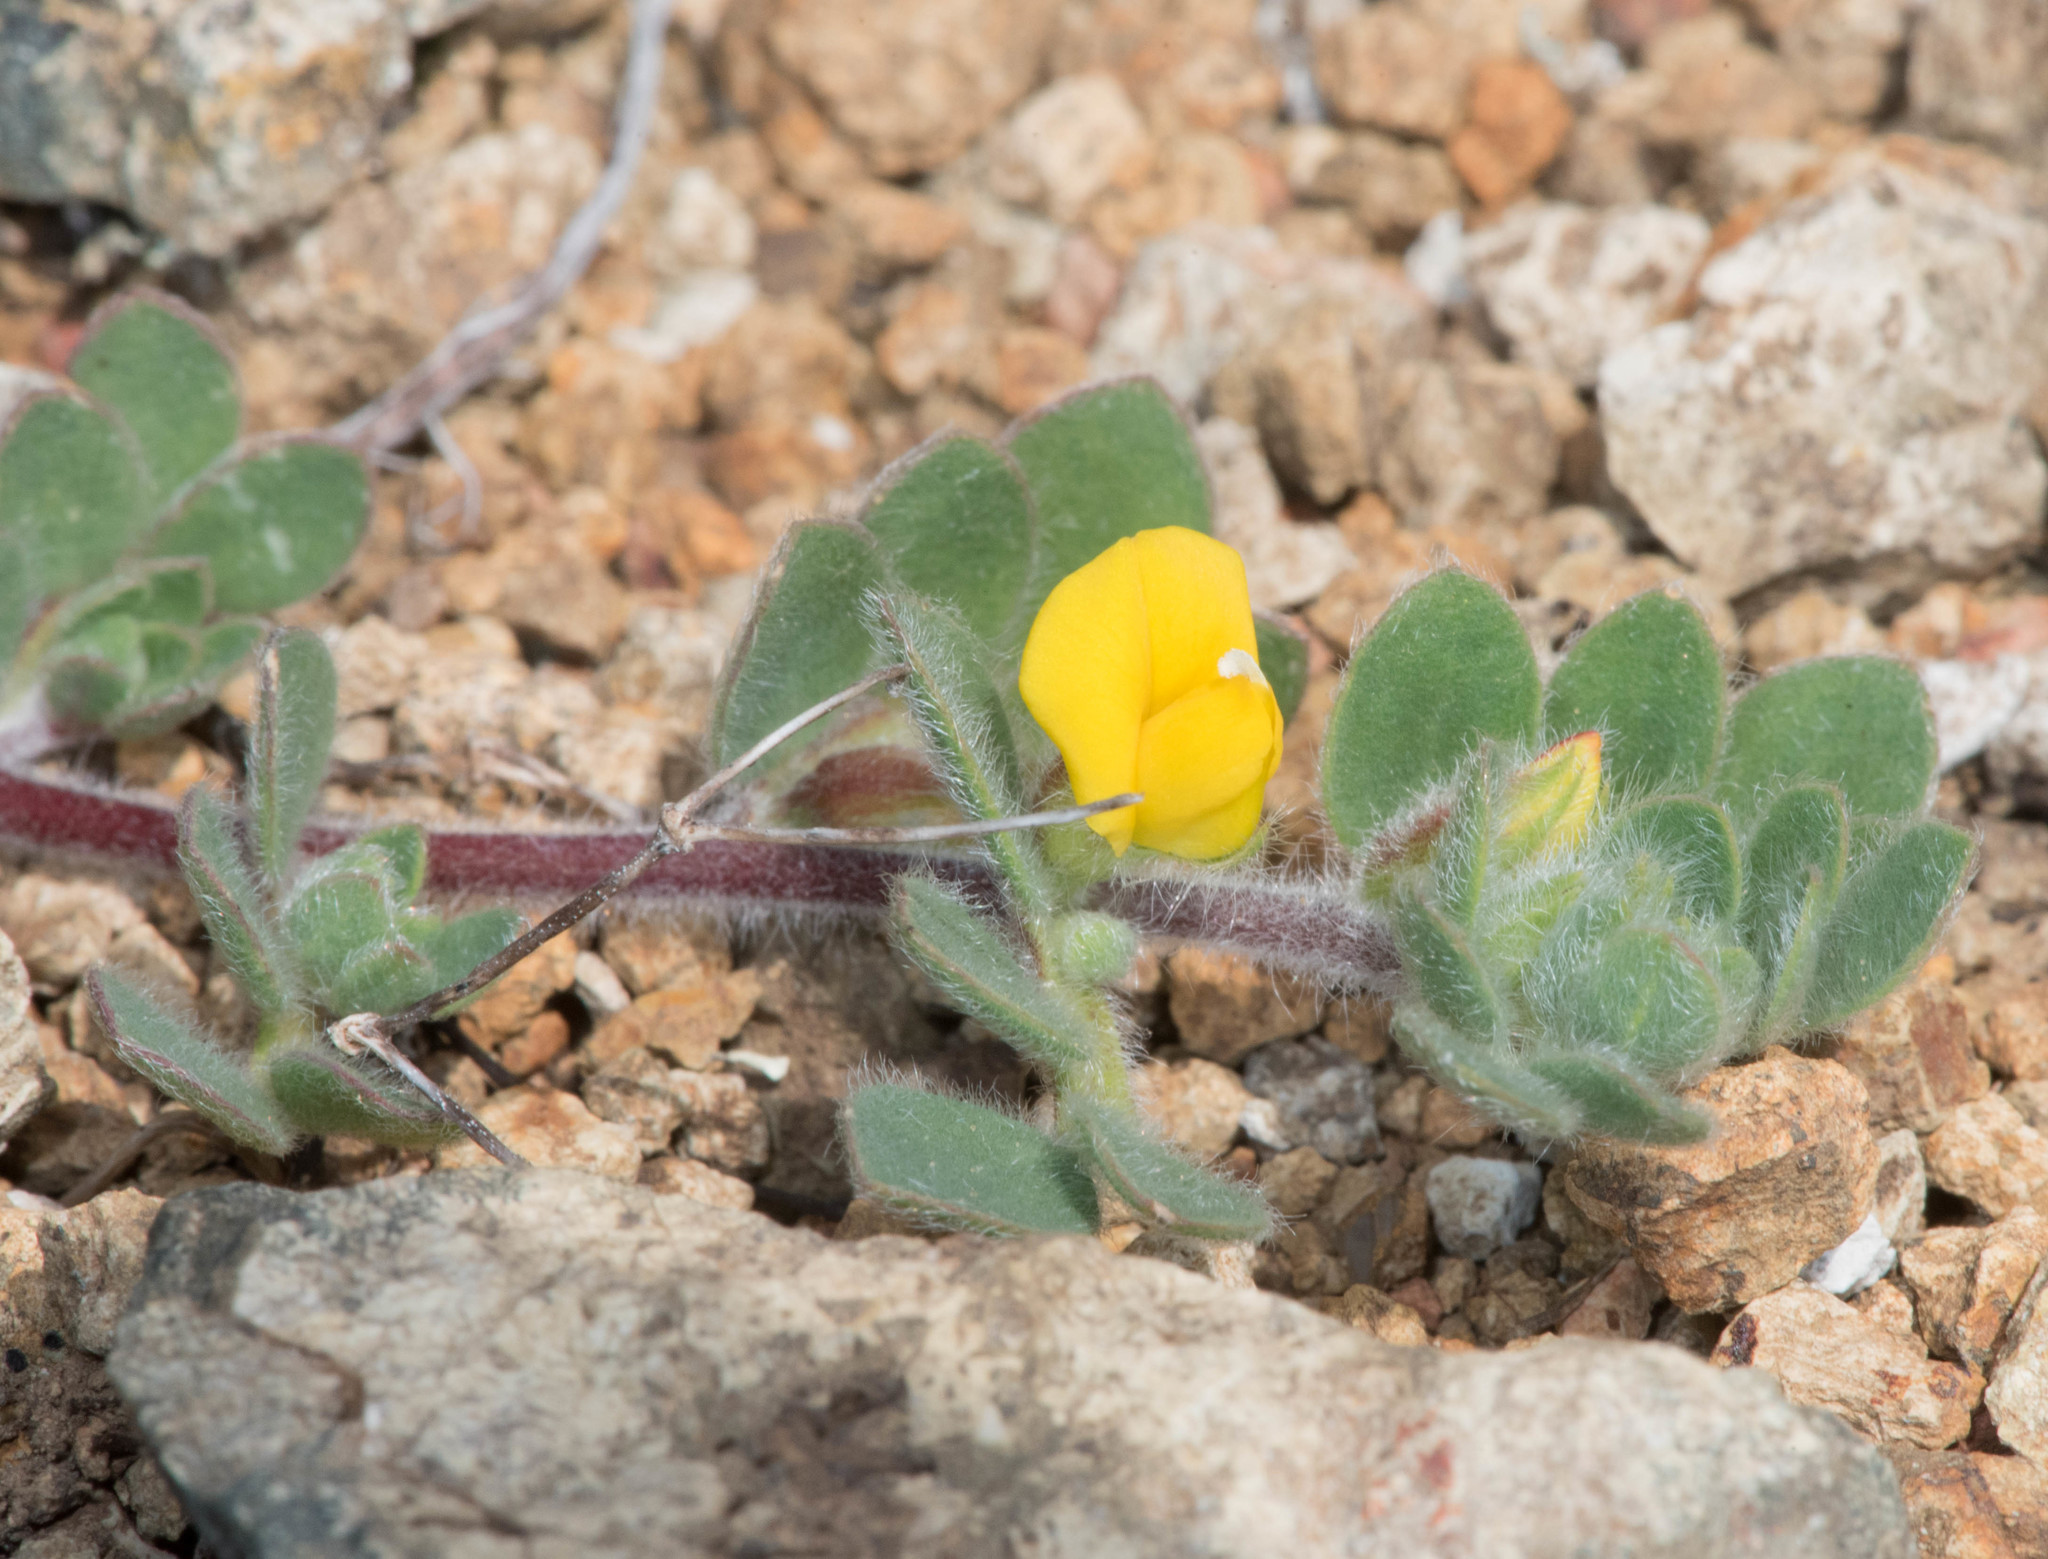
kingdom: Plantae
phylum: Tracheophyta
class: Magnoliopsida
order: Fabales
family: Fabaceae
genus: Acmispon
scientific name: Acmispon brachycarpus
